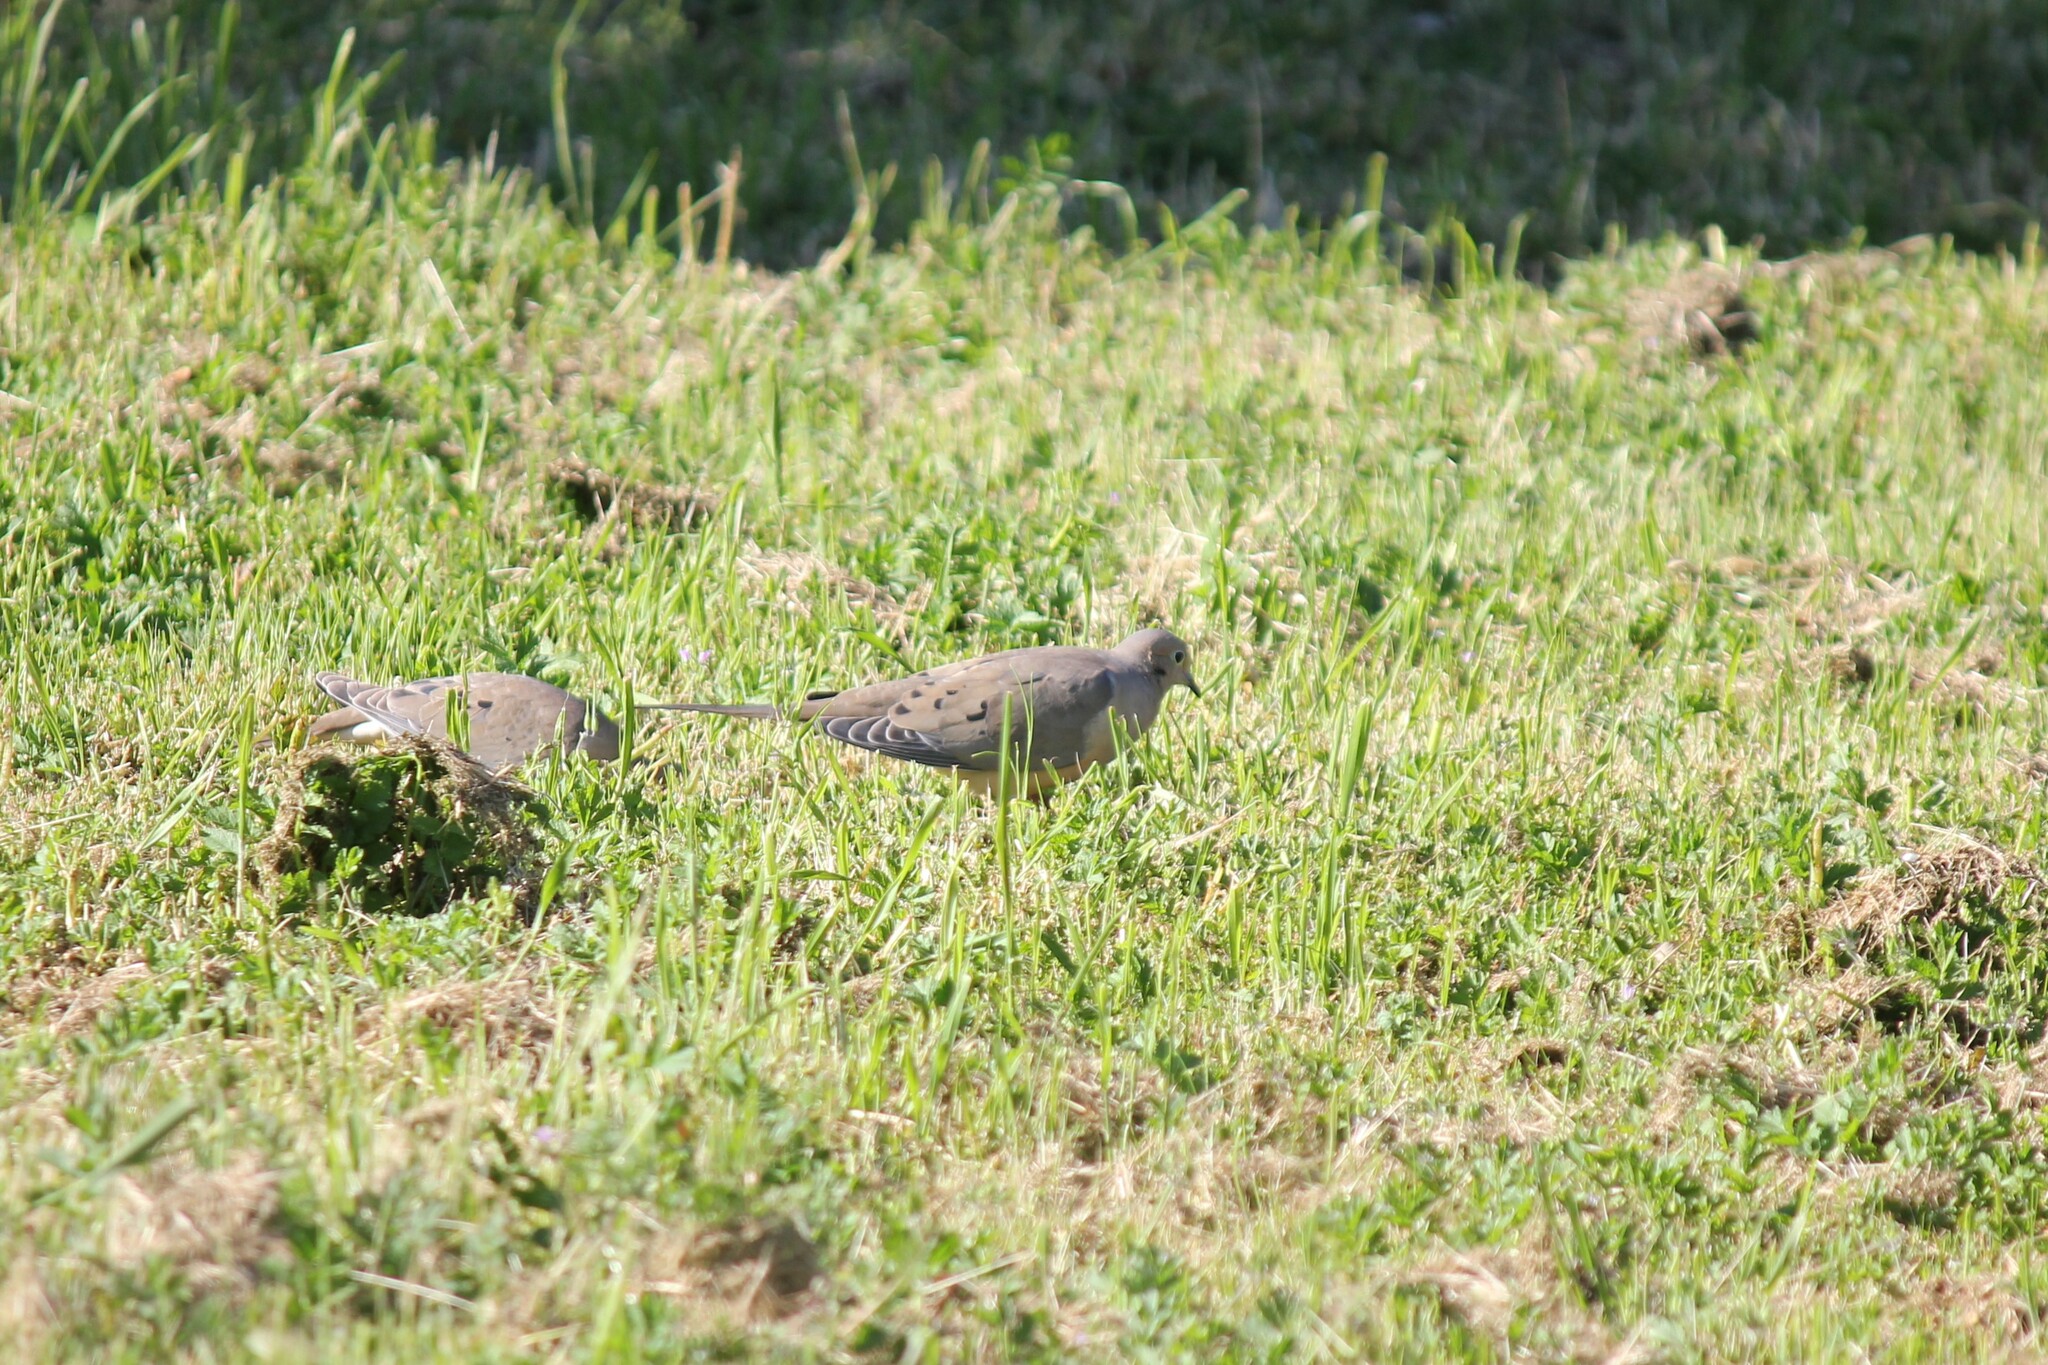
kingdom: Animalia
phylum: Chordata
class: Aves
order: Columbiformes
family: Columbidae
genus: Zenaida
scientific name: Zenaida macroura
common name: Mourning dove
